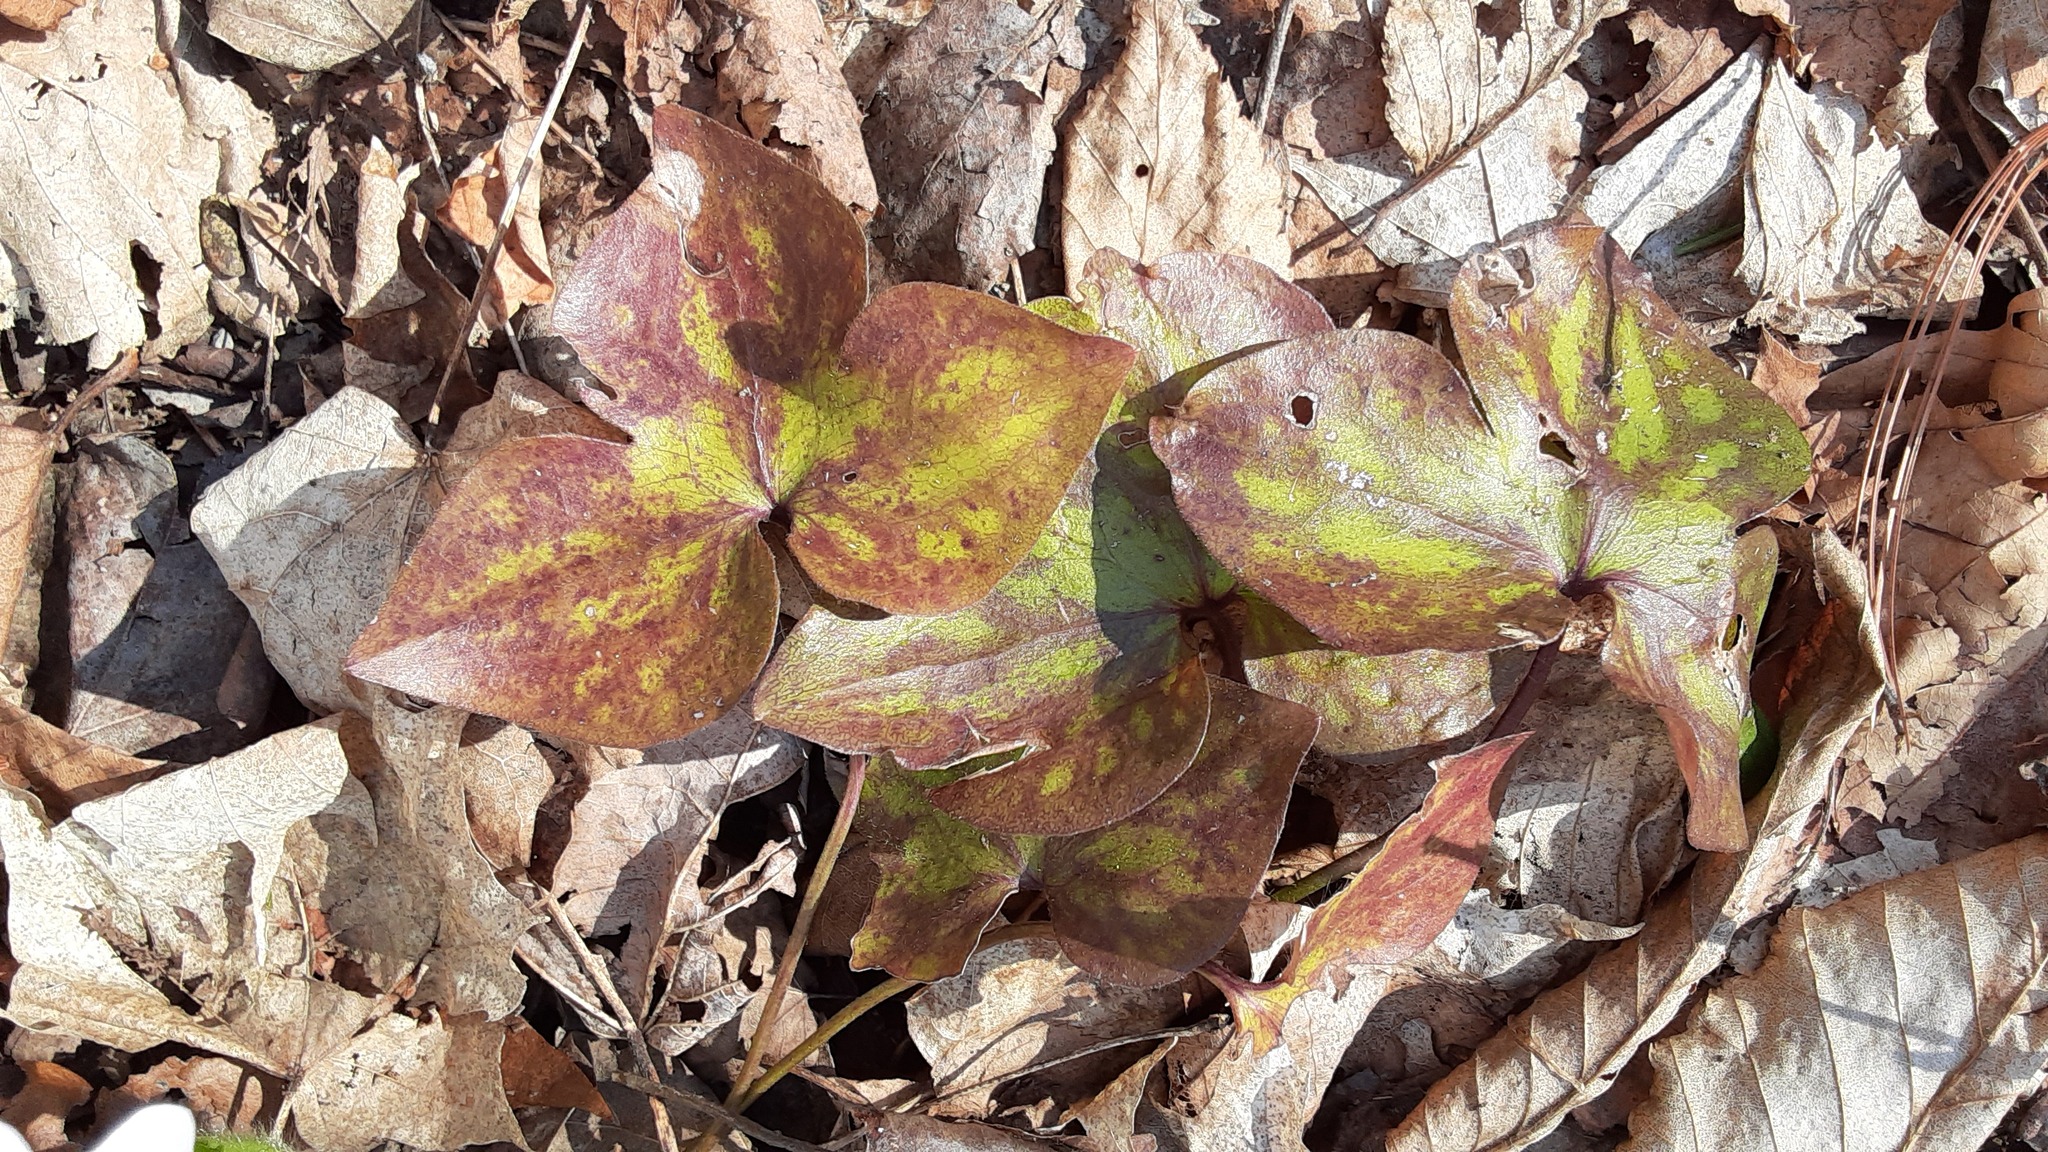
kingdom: Plantae
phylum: Tracheophyta
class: Magnoliopsida
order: Ranunculales
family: Ranunculaceae
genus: Hepatica
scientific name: Hepatica acutiloba
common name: Sharp-lobed hepatica
